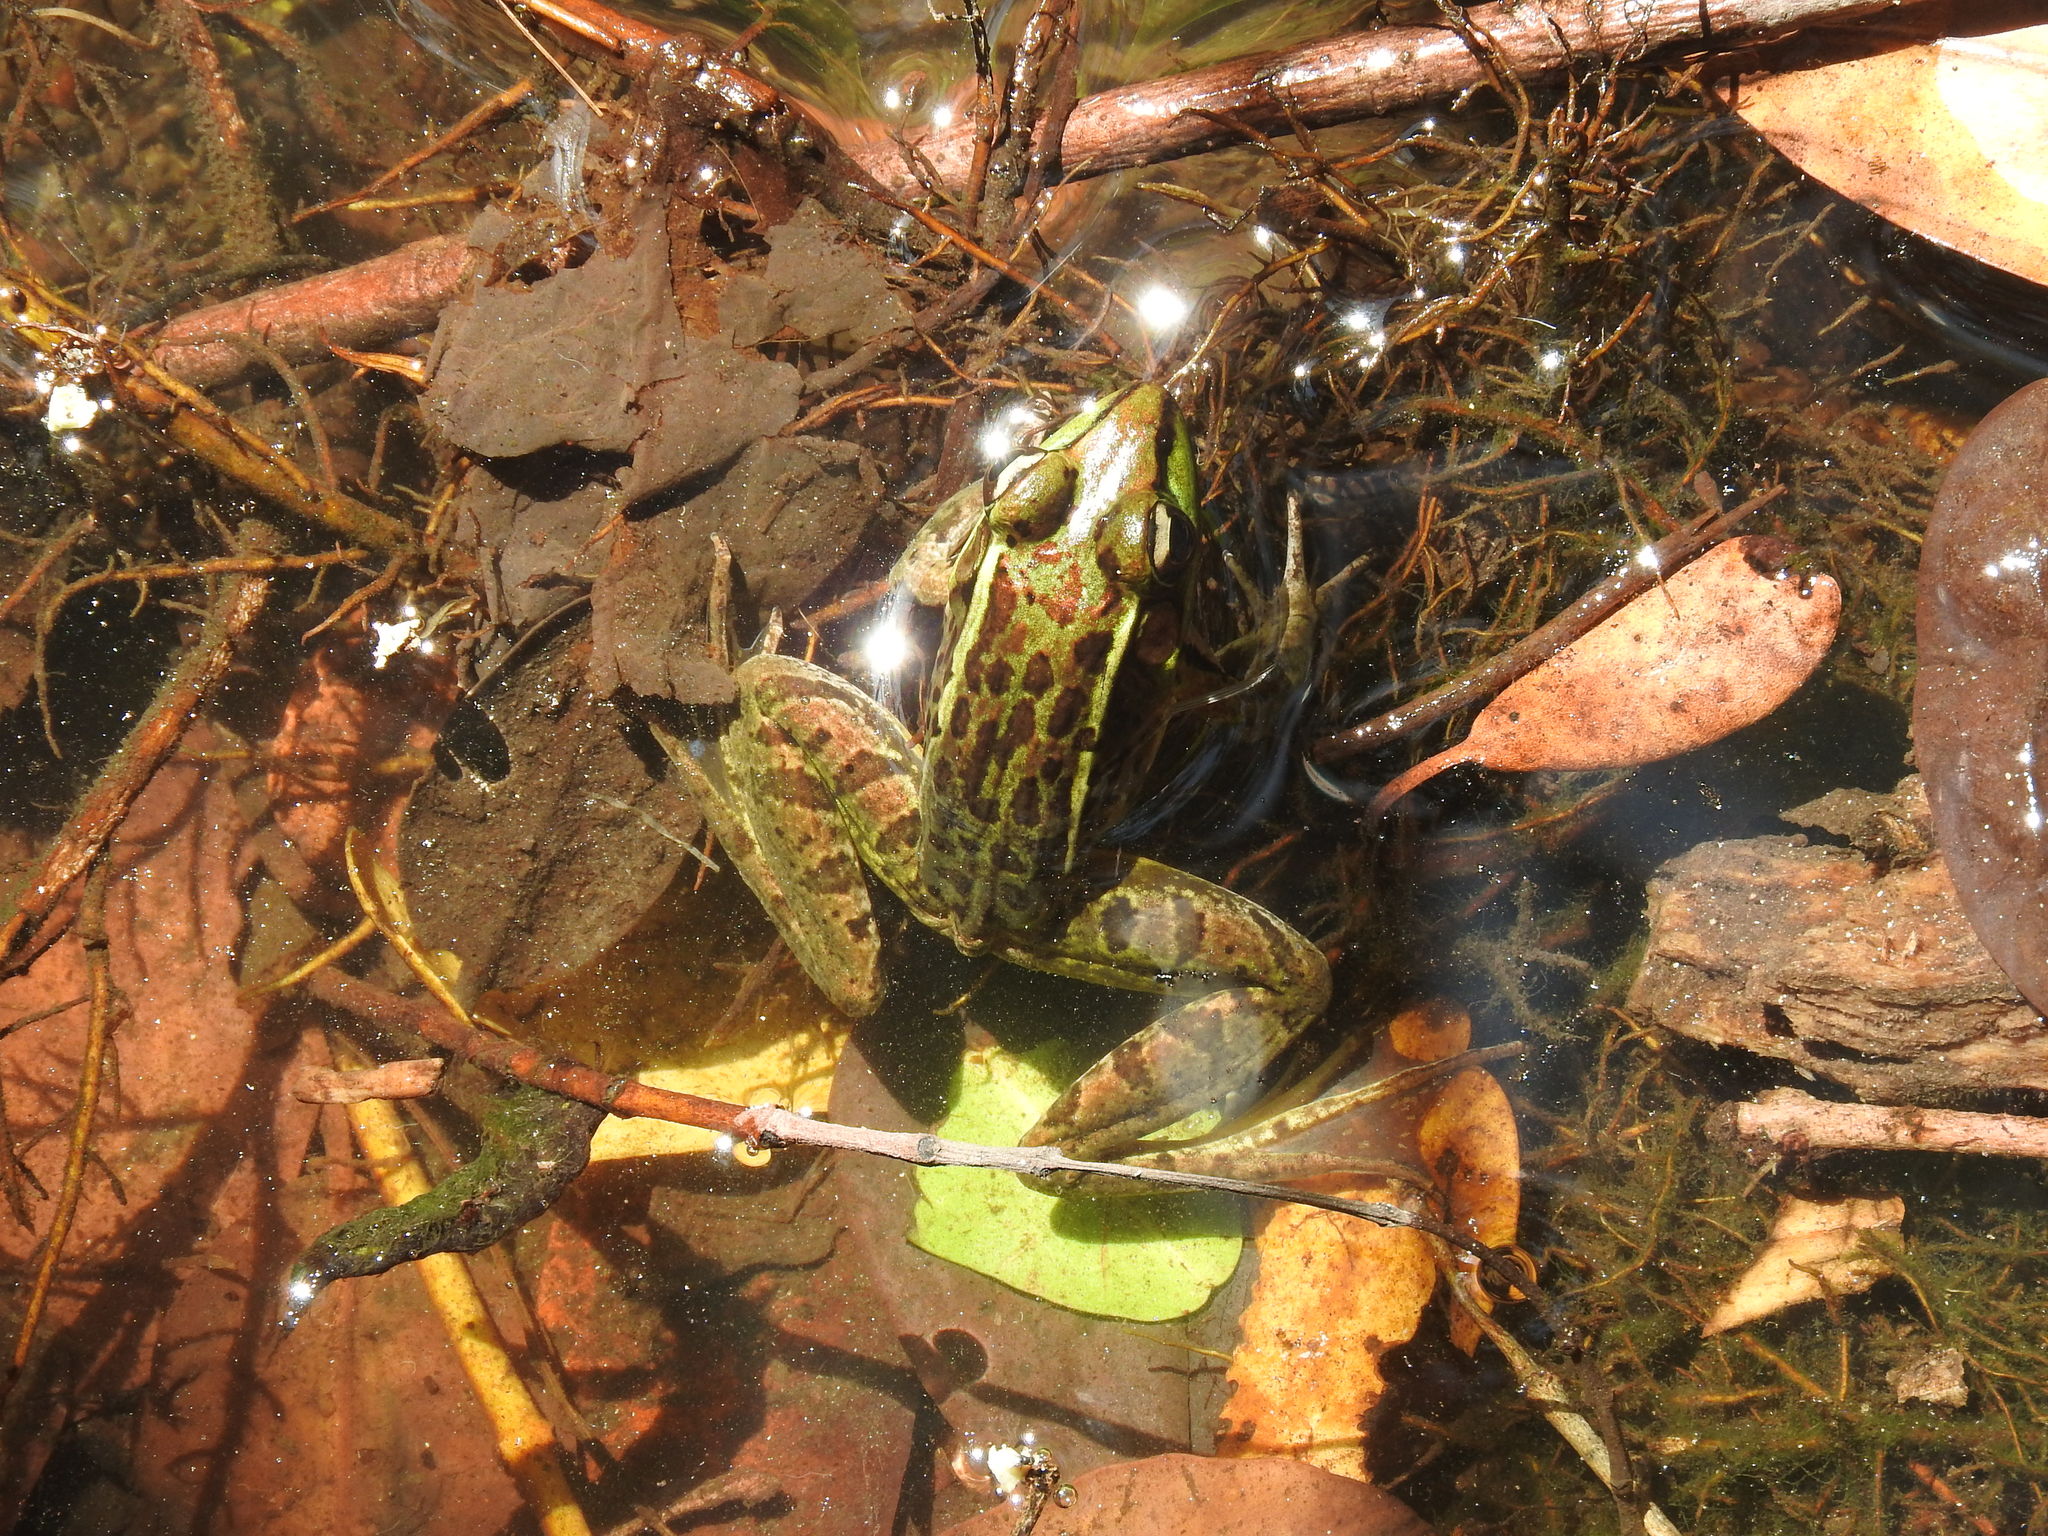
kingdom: Animalia
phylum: Chordata
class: Amphibia
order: Anura
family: Ranidae
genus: Lithobates
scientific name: Lithobates brownorum
